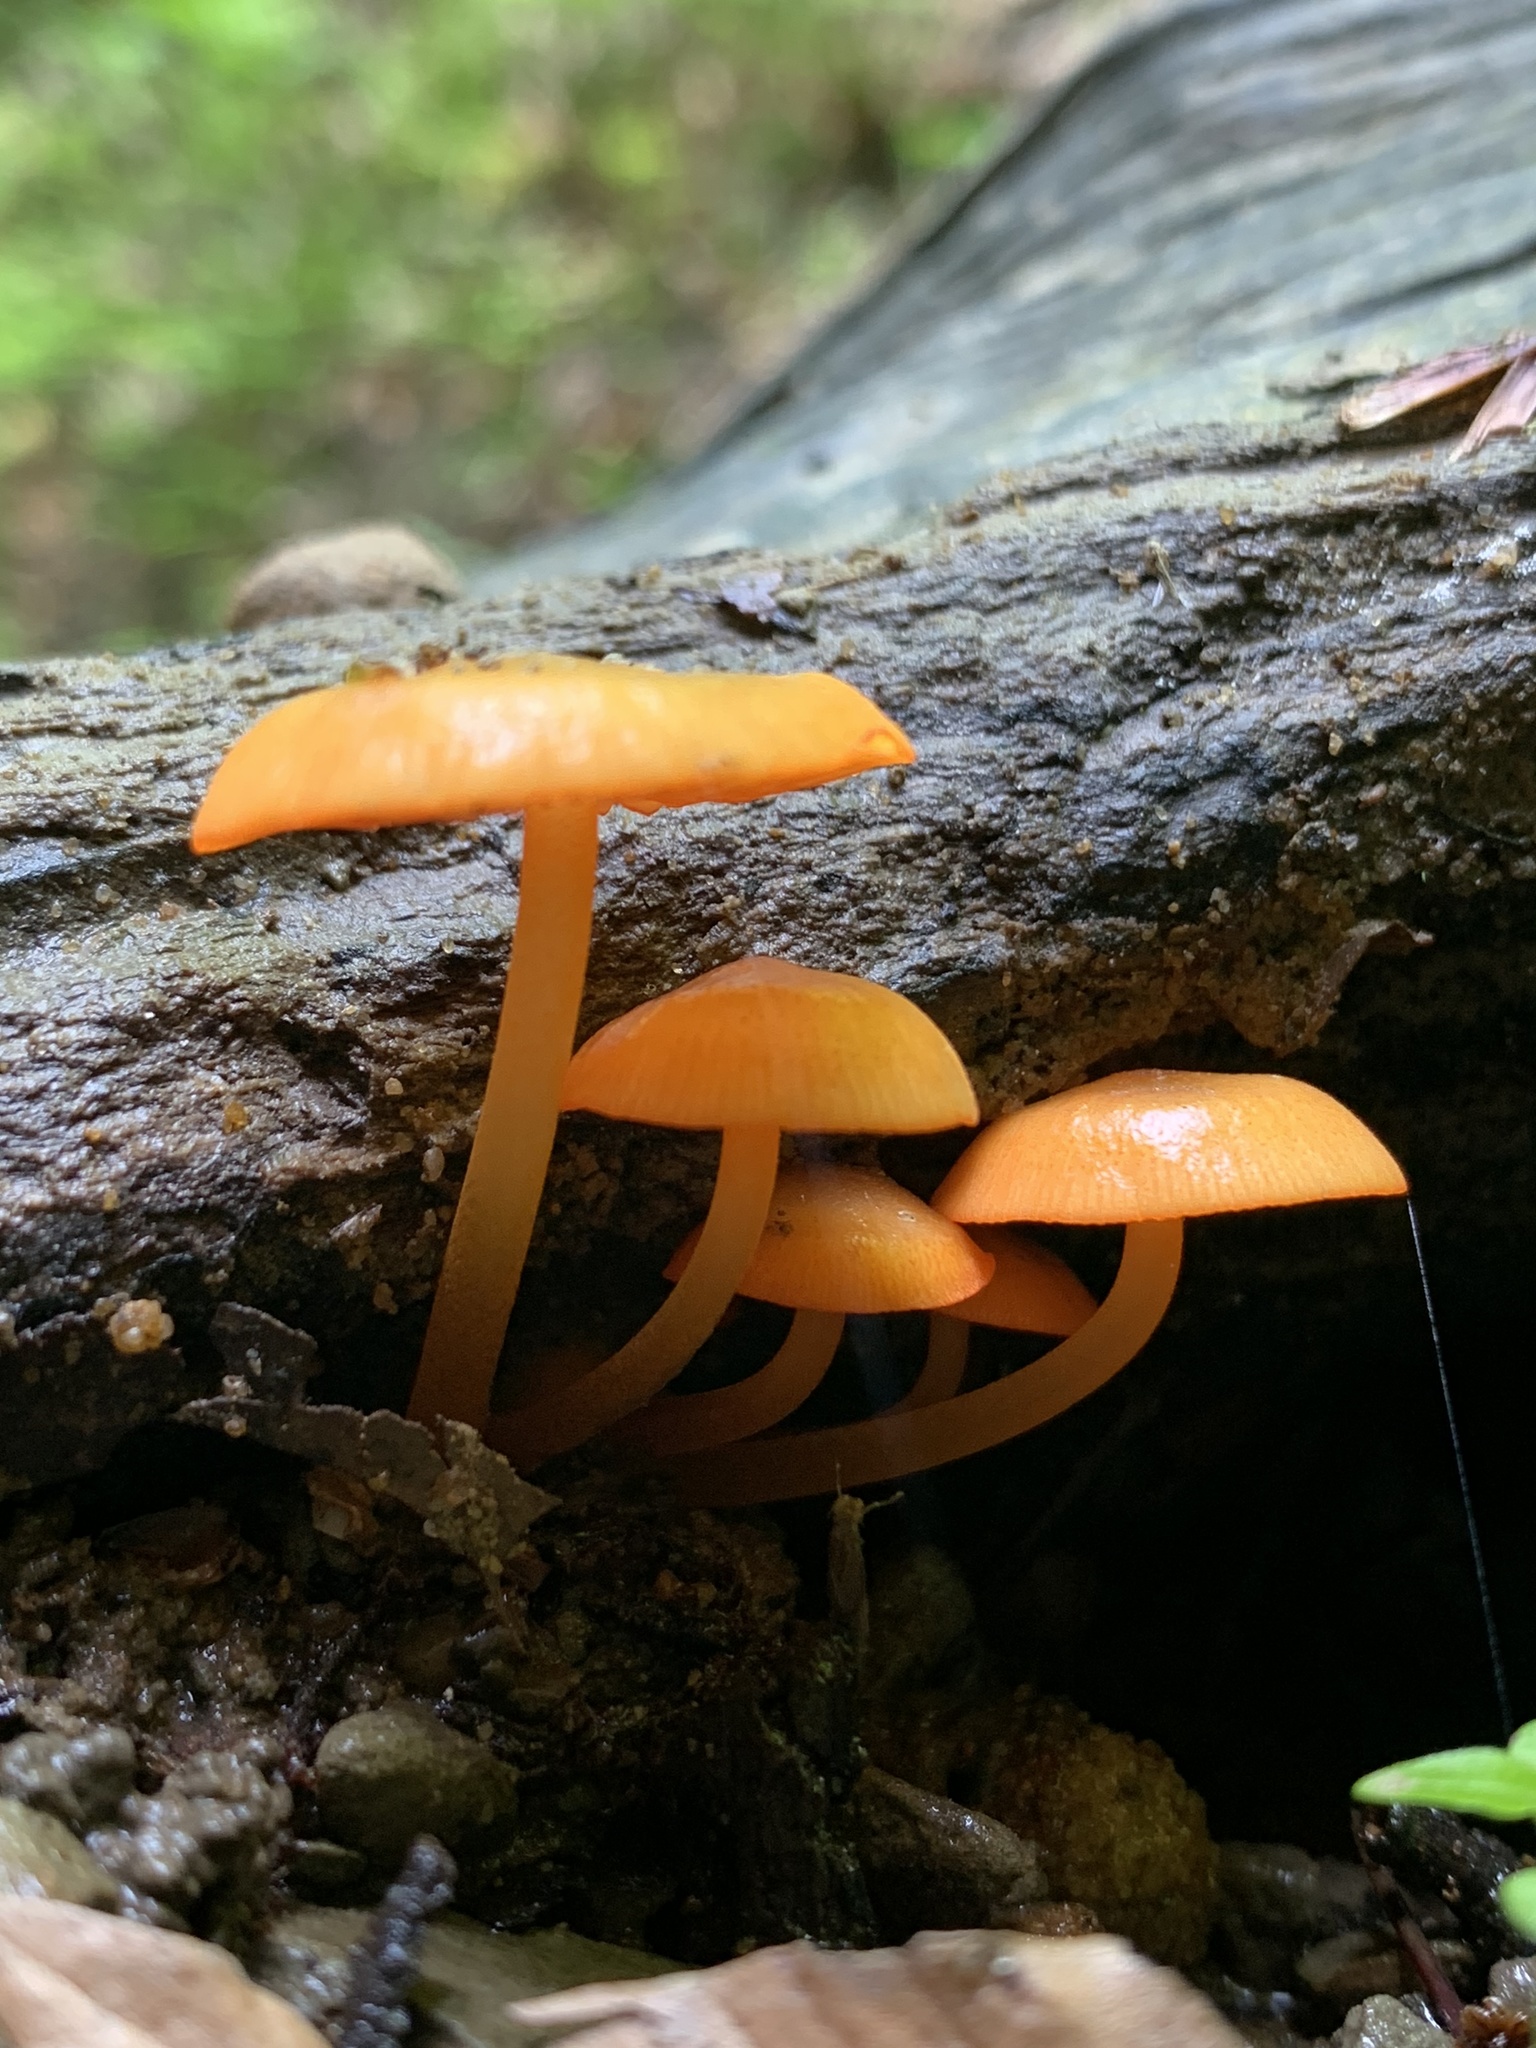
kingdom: Fungi
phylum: Basidiomycota
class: Agaricomycetes
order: Agaricales
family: Mycenaceae
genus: Mycena
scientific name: Mycena leaiana
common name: Orange mycena
